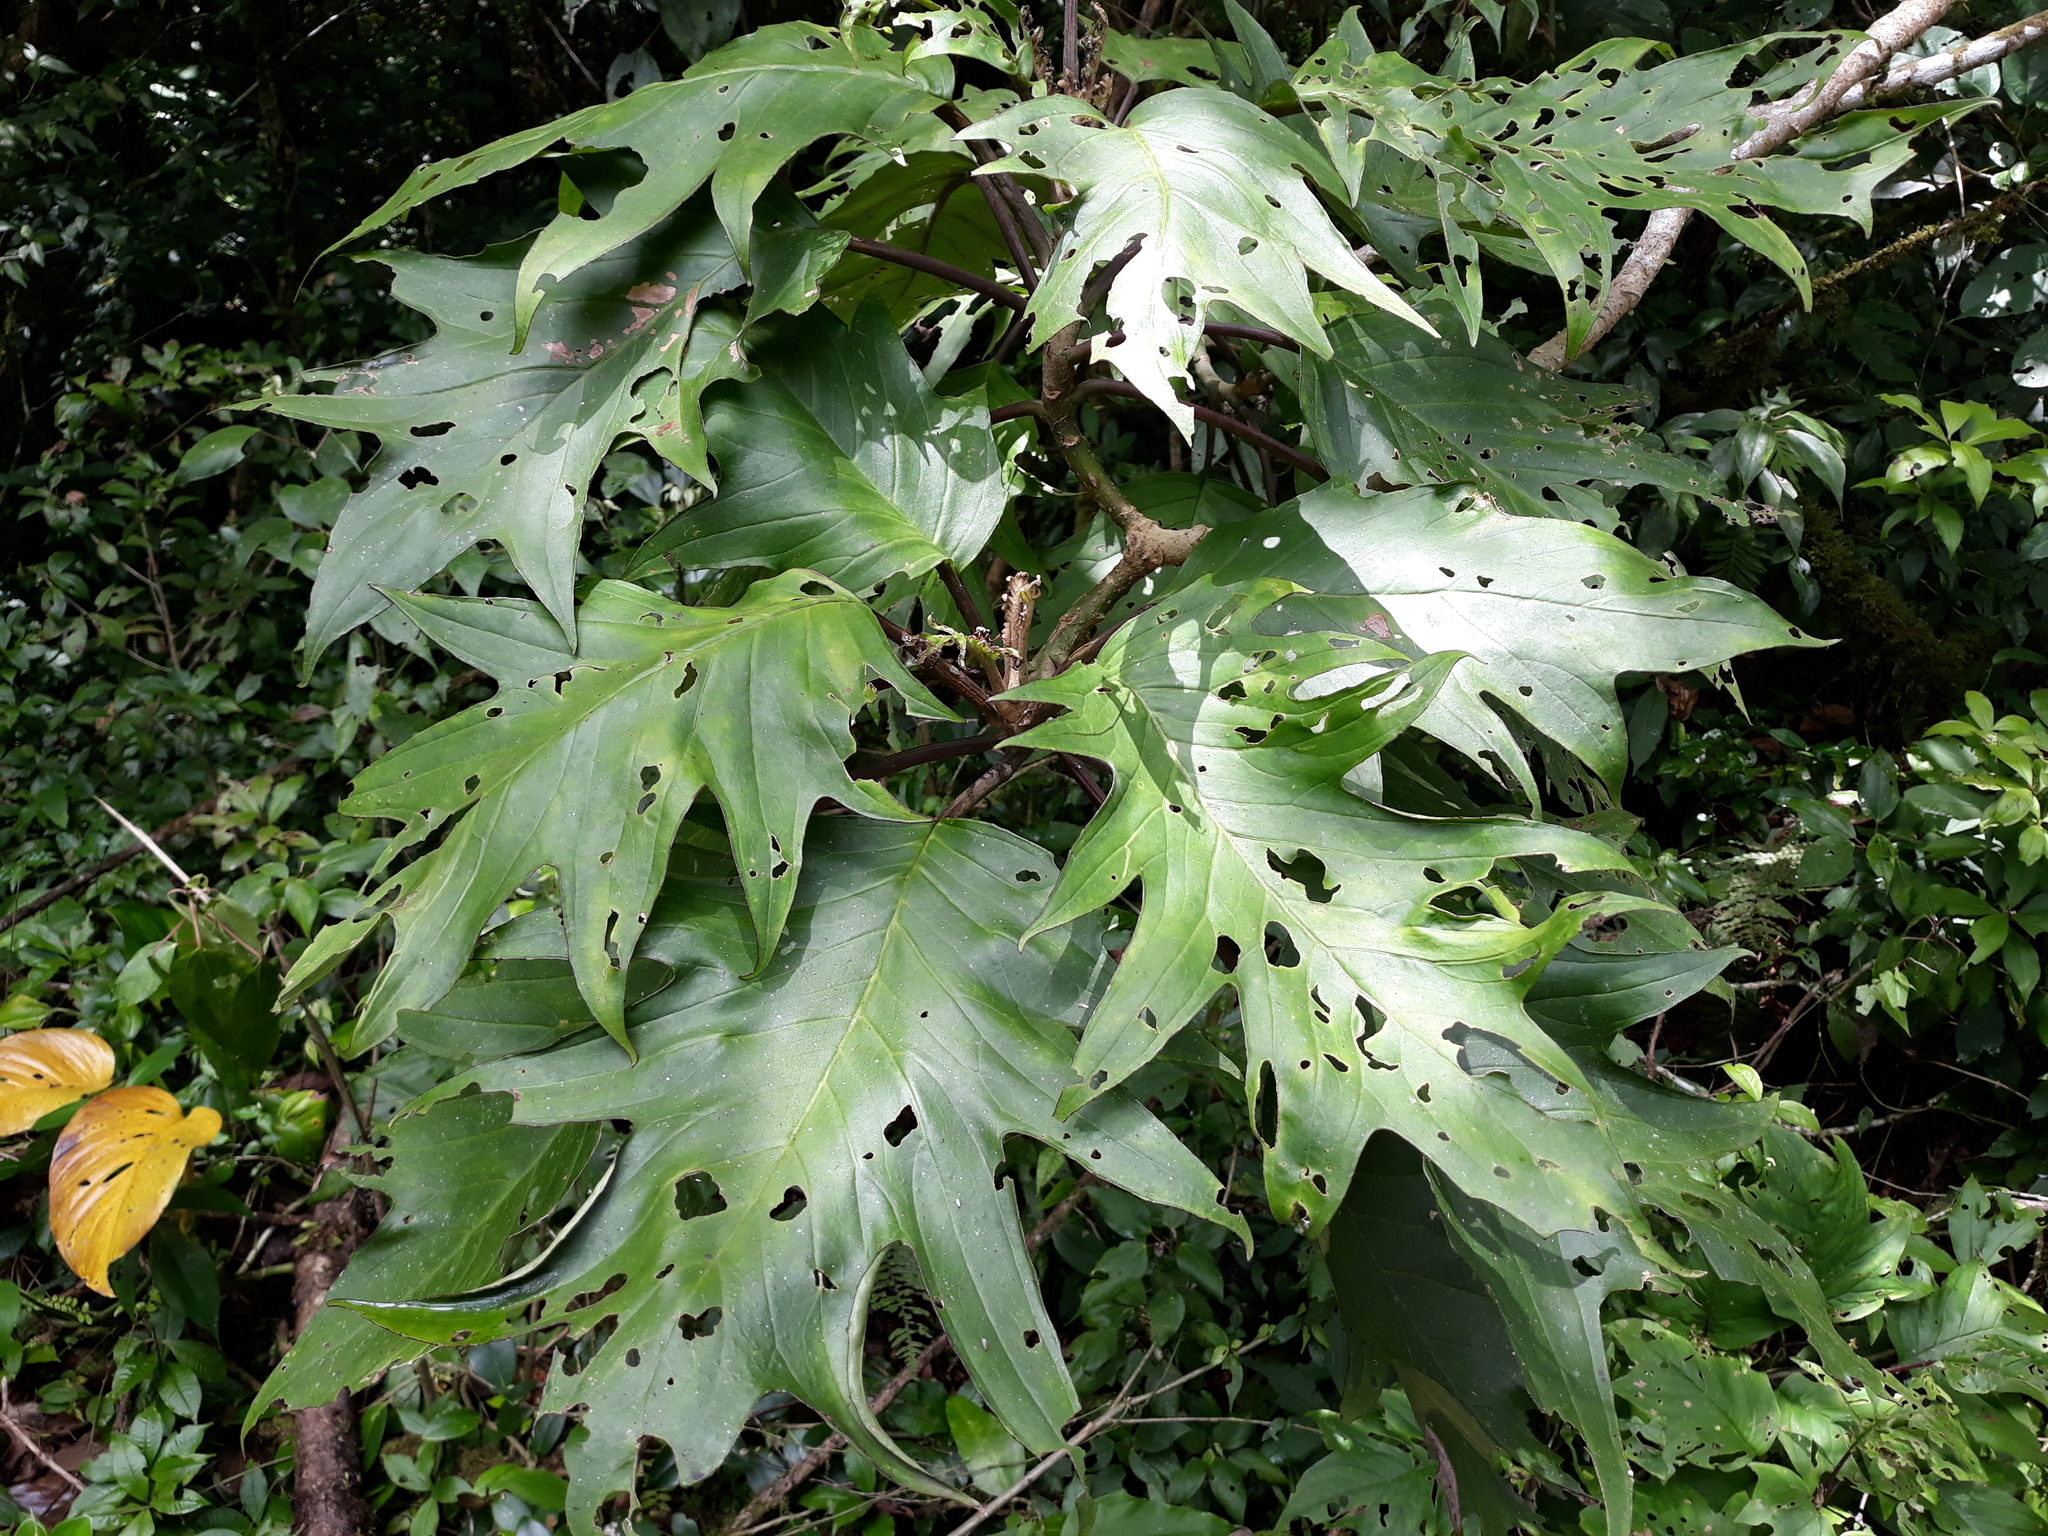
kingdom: Plantae
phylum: Tracheophyta
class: Magnoliopsida
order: Asterales
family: Asteraceae
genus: Telanthophora
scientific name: Telanthophora grandifolia
